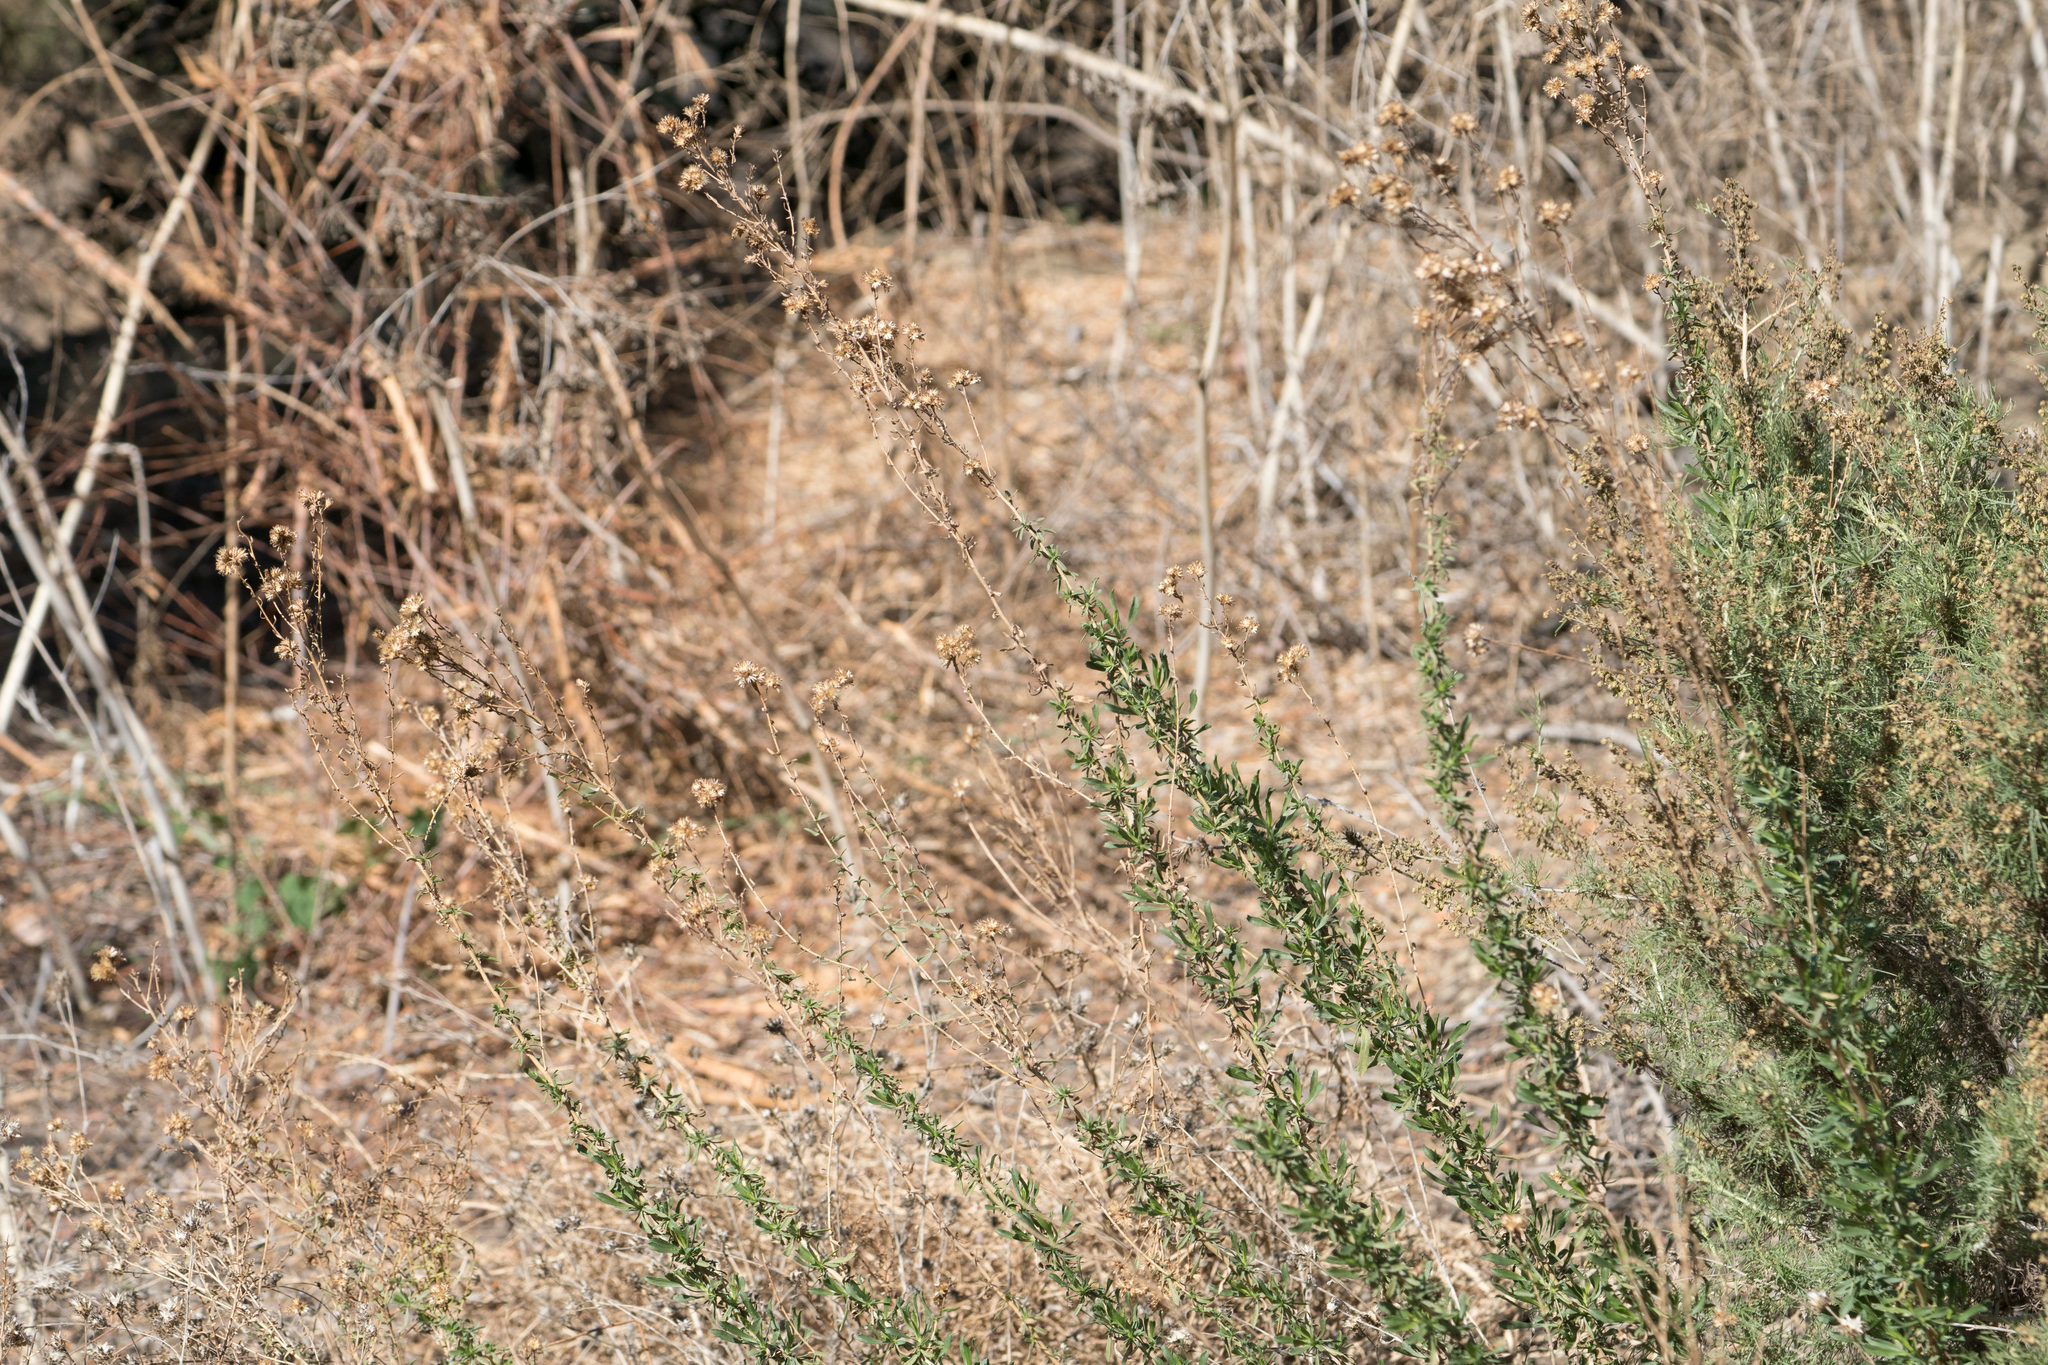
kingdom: Plantae
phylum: Tracheophyta
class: Magnoliopsida
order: Asterales
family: Asteraceae
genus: Isocoma
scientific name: Isocoma menziesii
